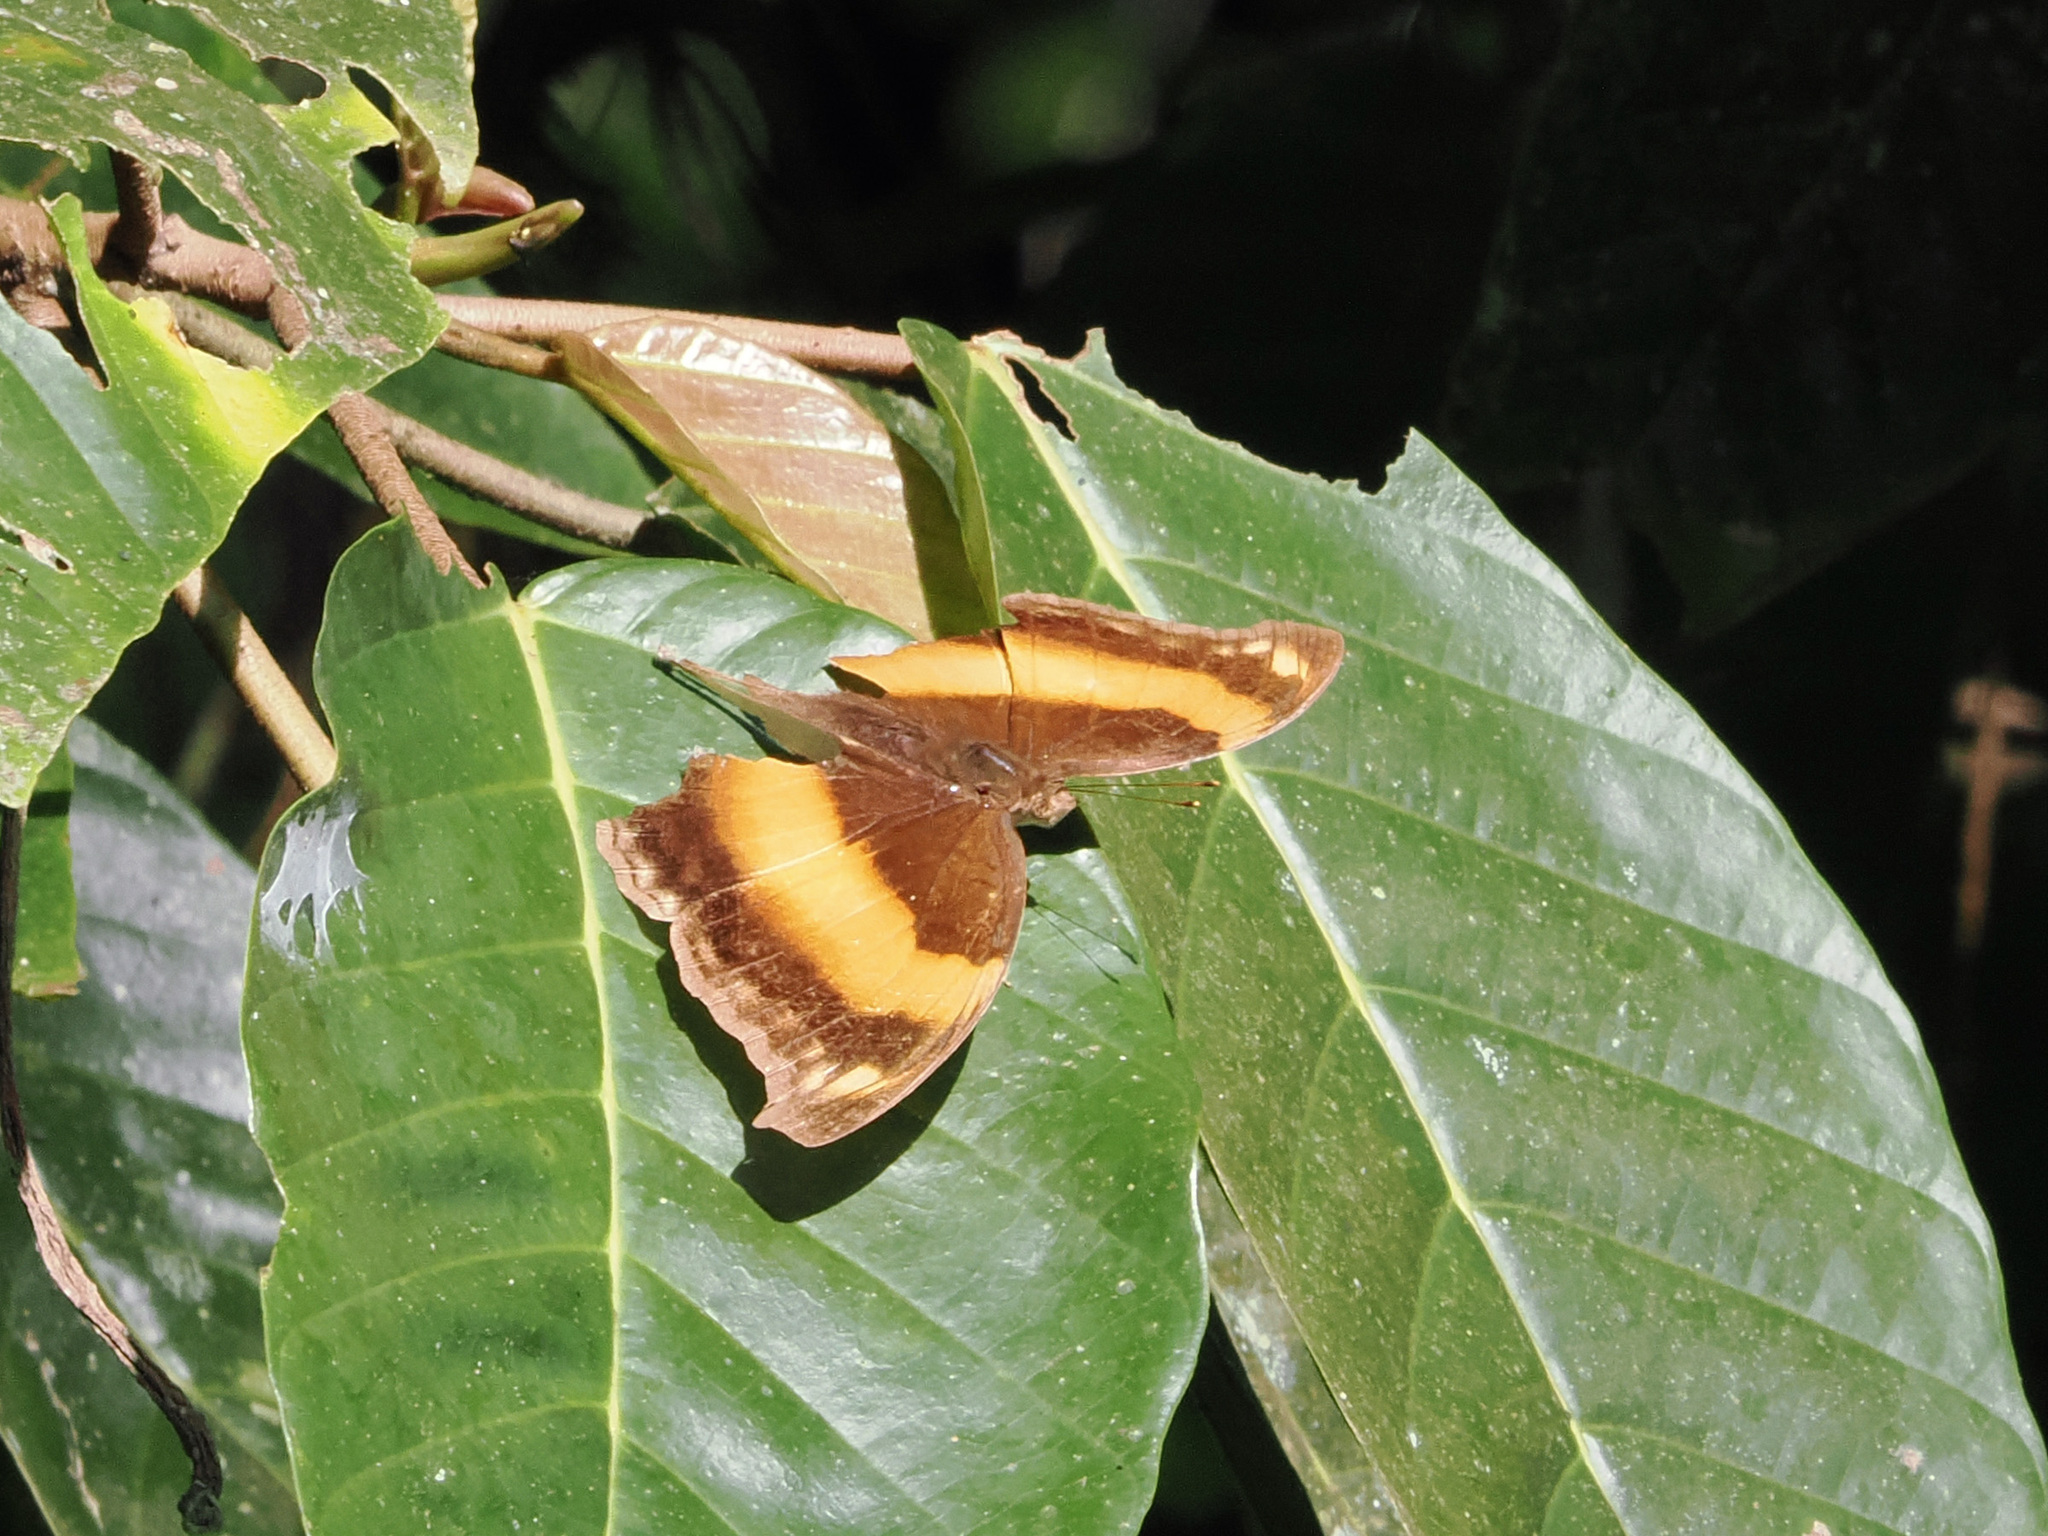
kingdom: Animalia
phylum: Arthropoda
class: Insecta
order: Lepidoptera
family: Nymphalidae
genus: Yoma
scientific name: Yoma sabina
